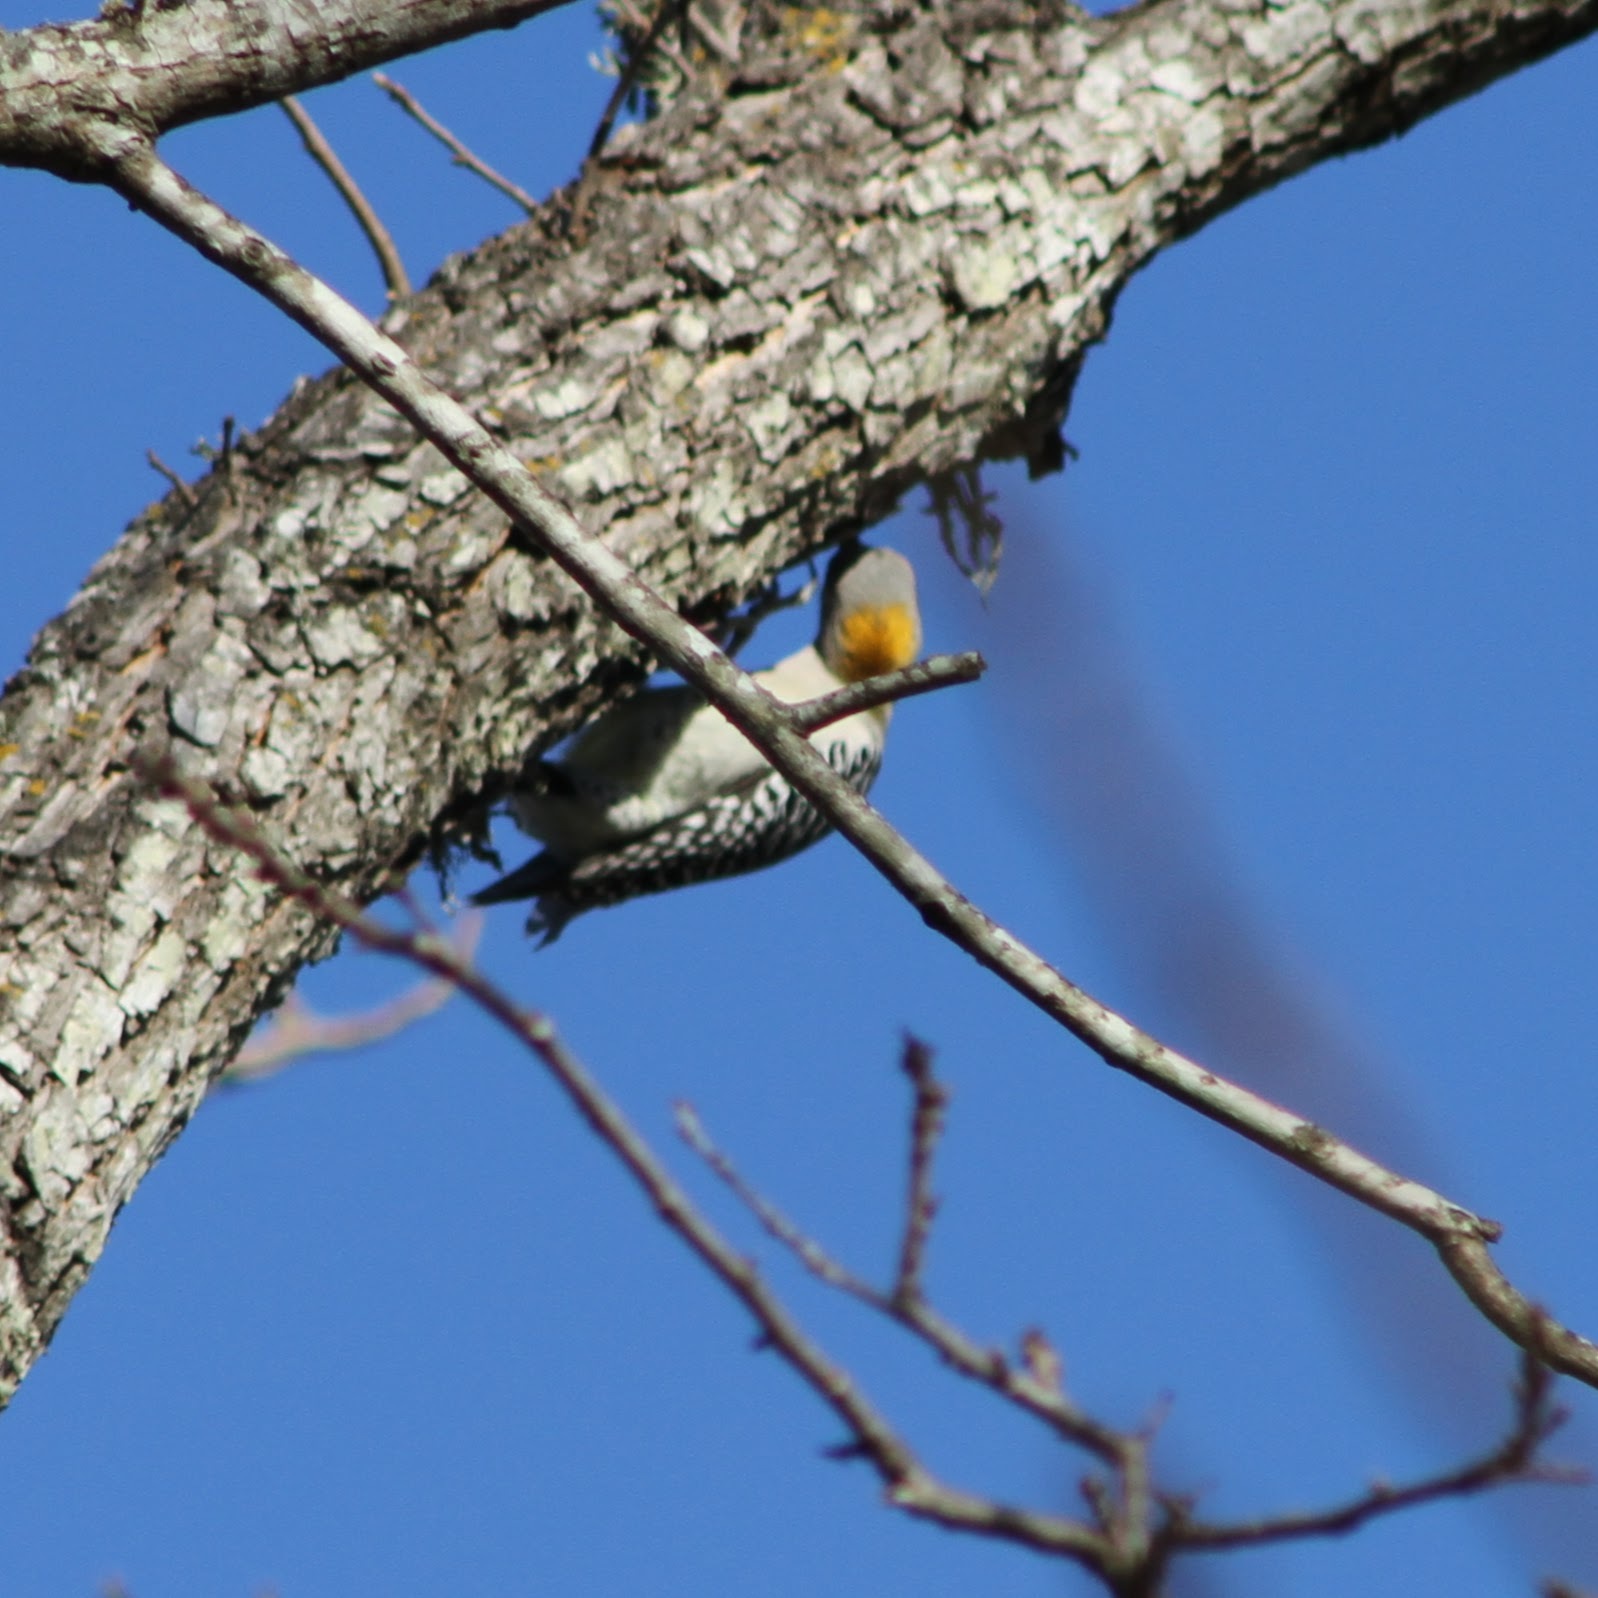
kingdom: Animalia
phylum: Chordata
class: Aves
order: Piciformes
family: Picidae
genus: Melanerpes
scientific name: Melanerpes aurifrons
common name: Golden-fronted woodpecker
